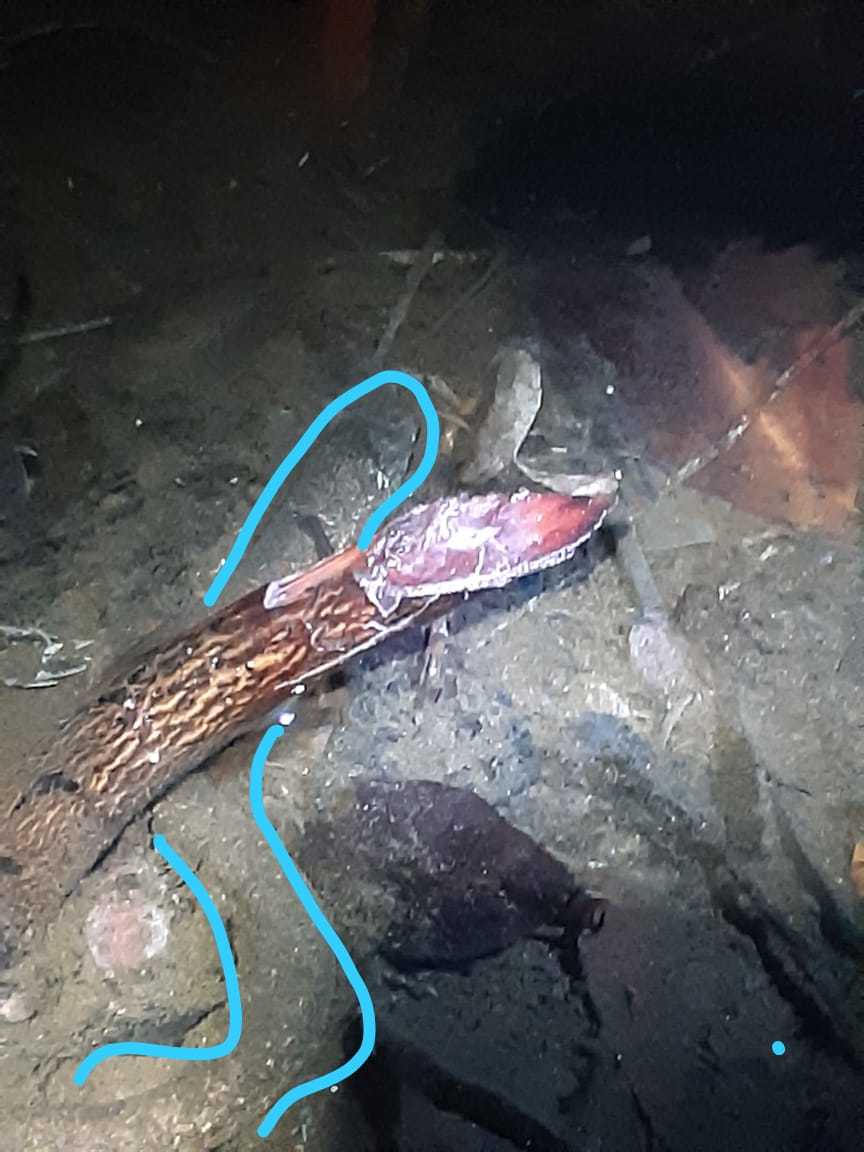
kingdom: Animalia
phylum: Chordata
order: Synbranchiformes
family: Synbranchidae
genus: Synbranchus
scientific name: Synbranchus marmoratus
